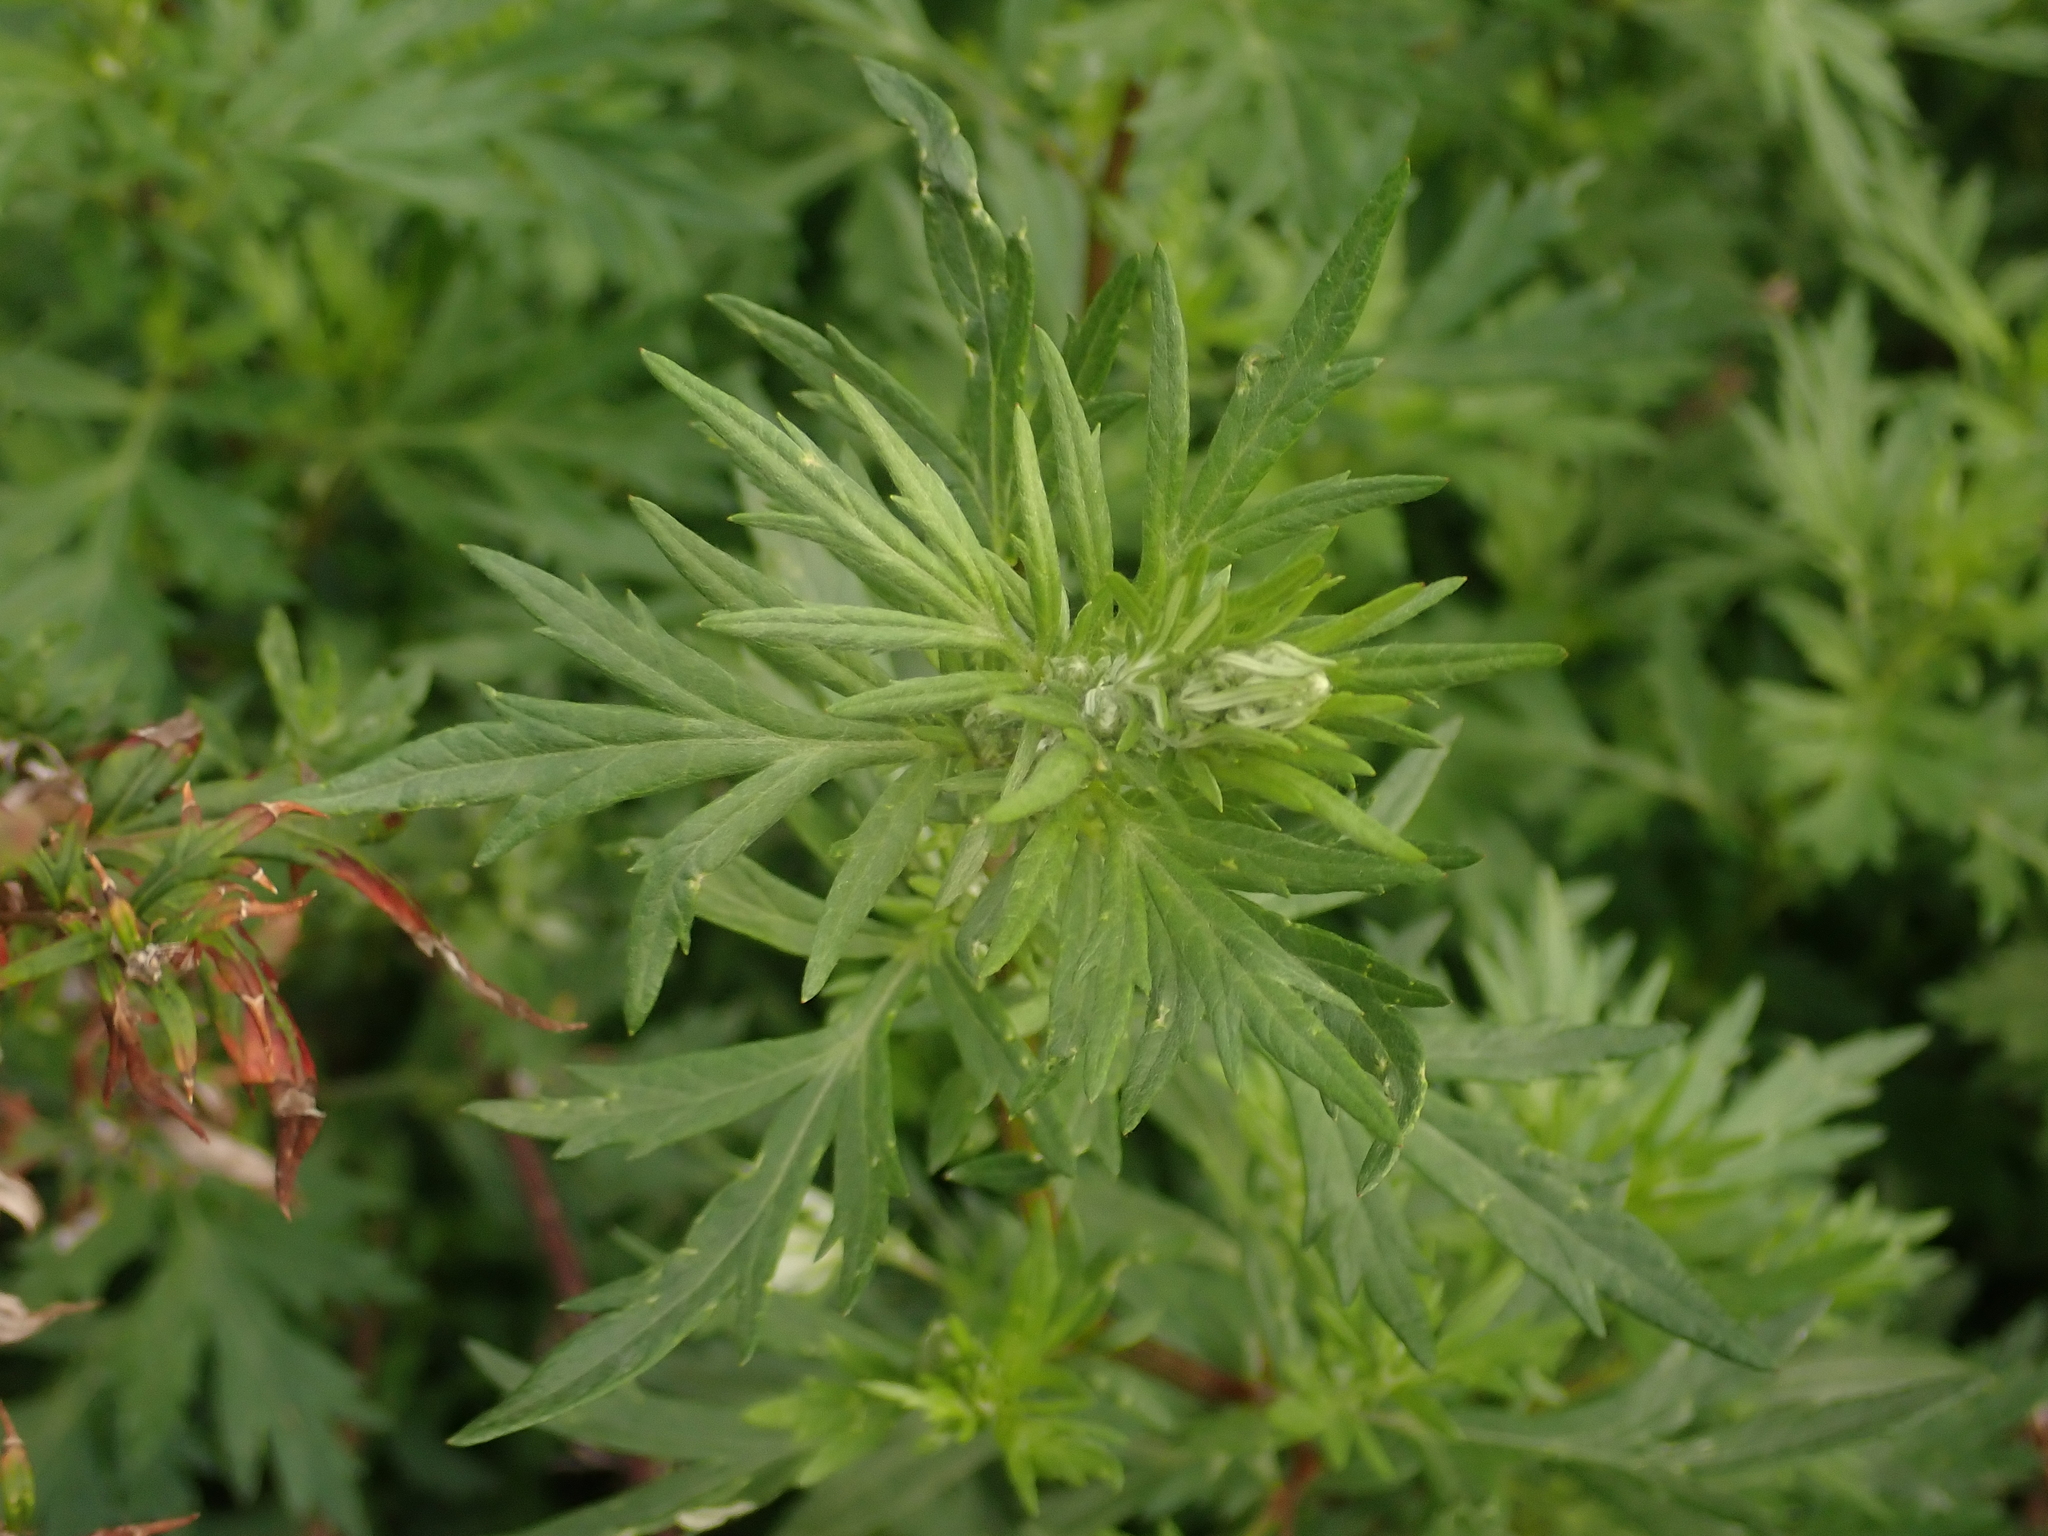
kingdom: Plantae
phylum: Tracheophyta
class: Magnoliopsida
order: Asterales
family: Asteraceae
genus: Artemisia
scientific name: Artemisia vulgaris
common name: Mugwort
